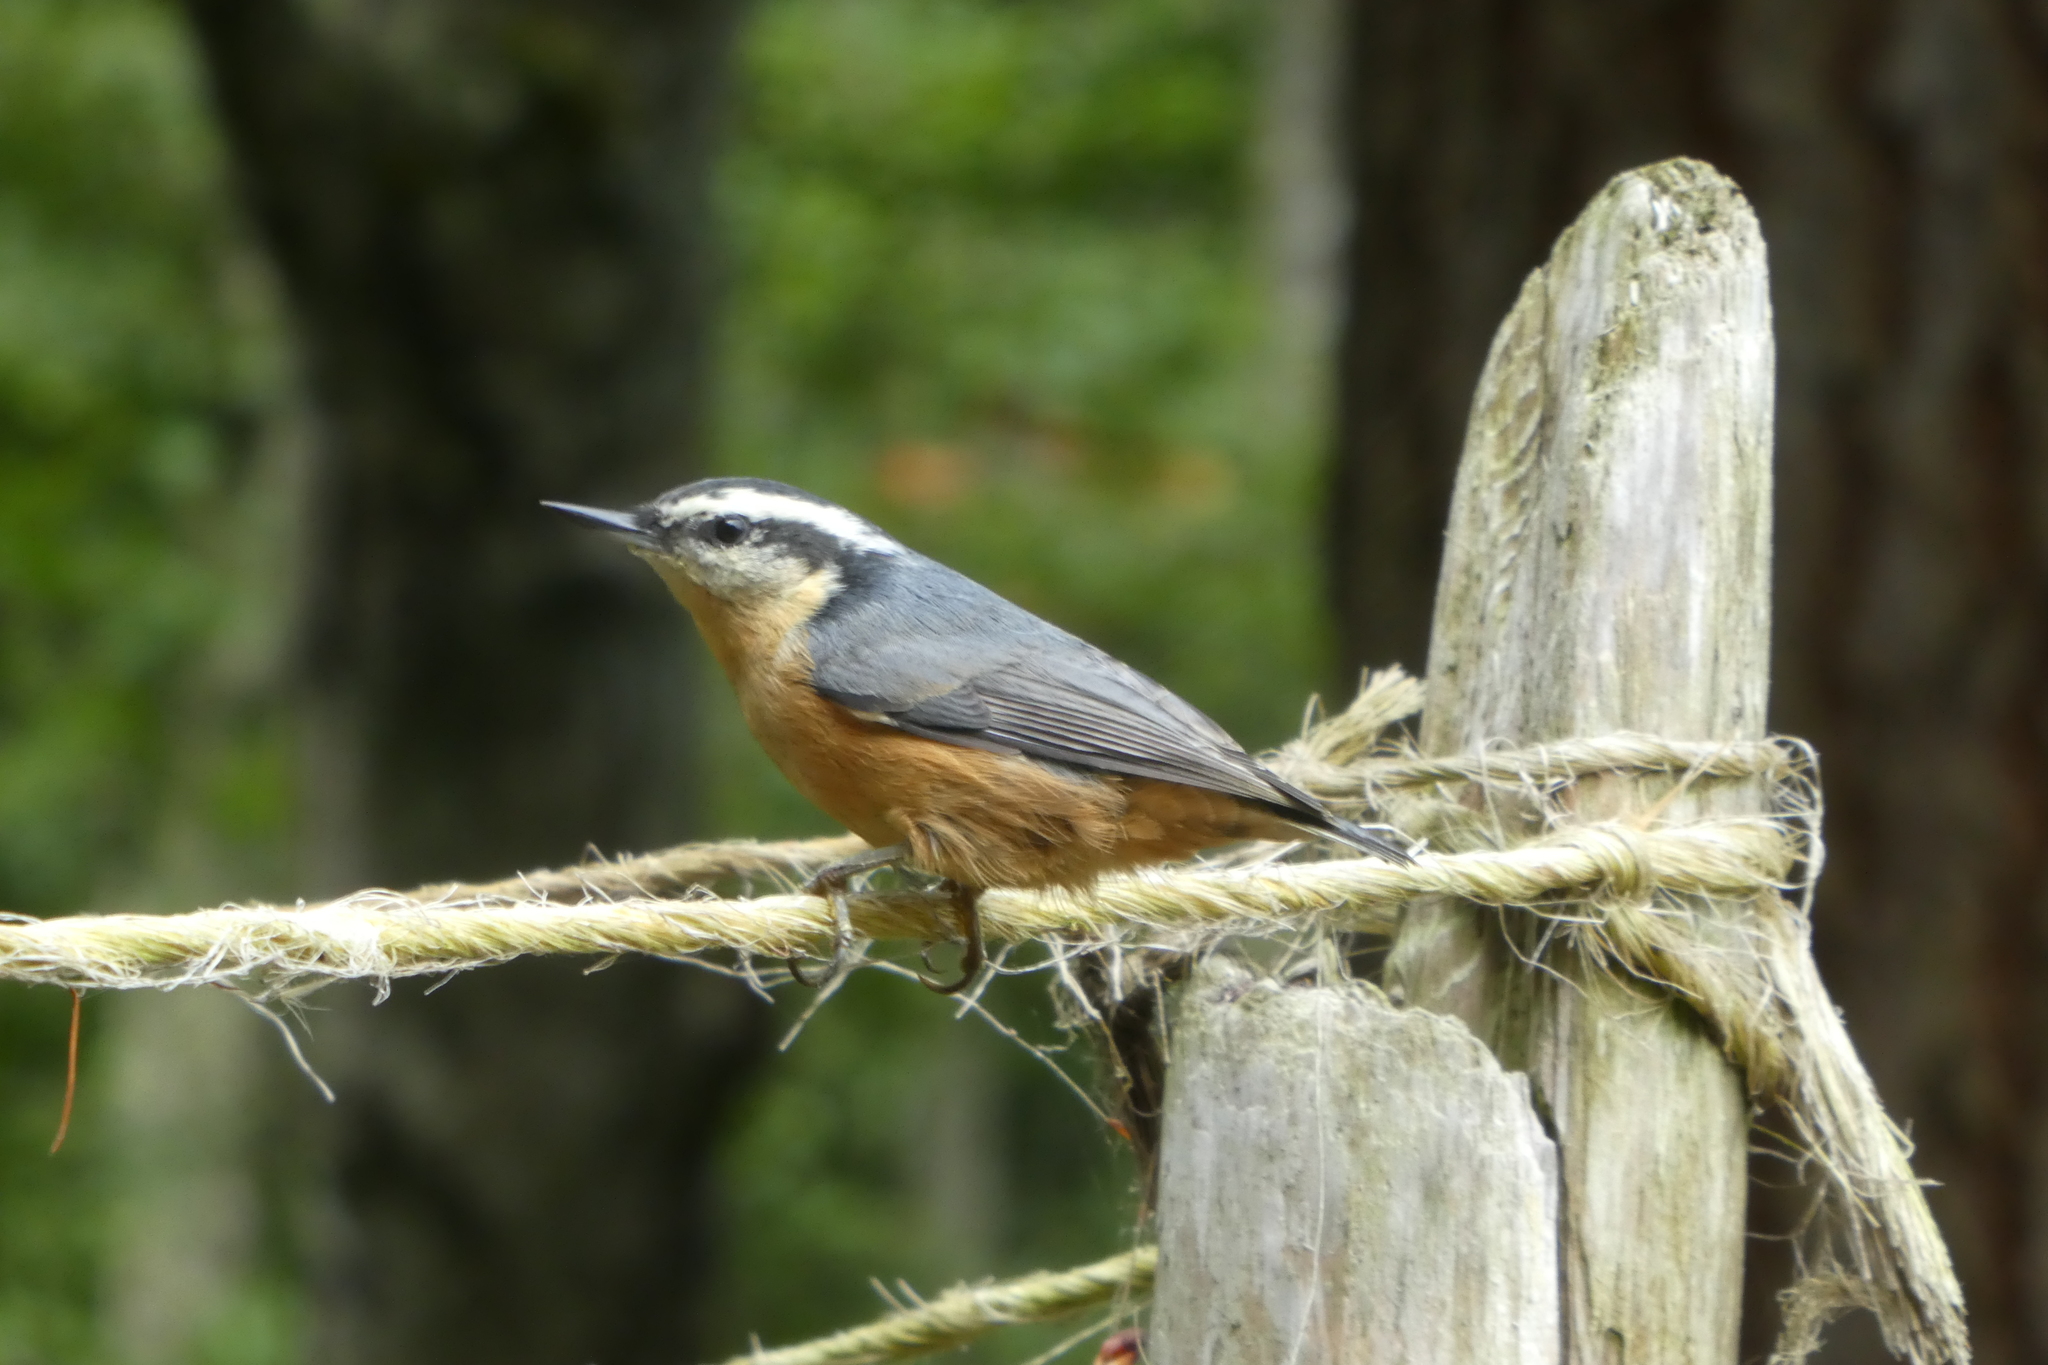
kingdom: Animalia
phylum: Chordata
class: Aves
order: Passeriformes
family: Sittidae
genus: Sitta
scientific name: Sitta canadensis
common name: Red-breasted nuthatch
